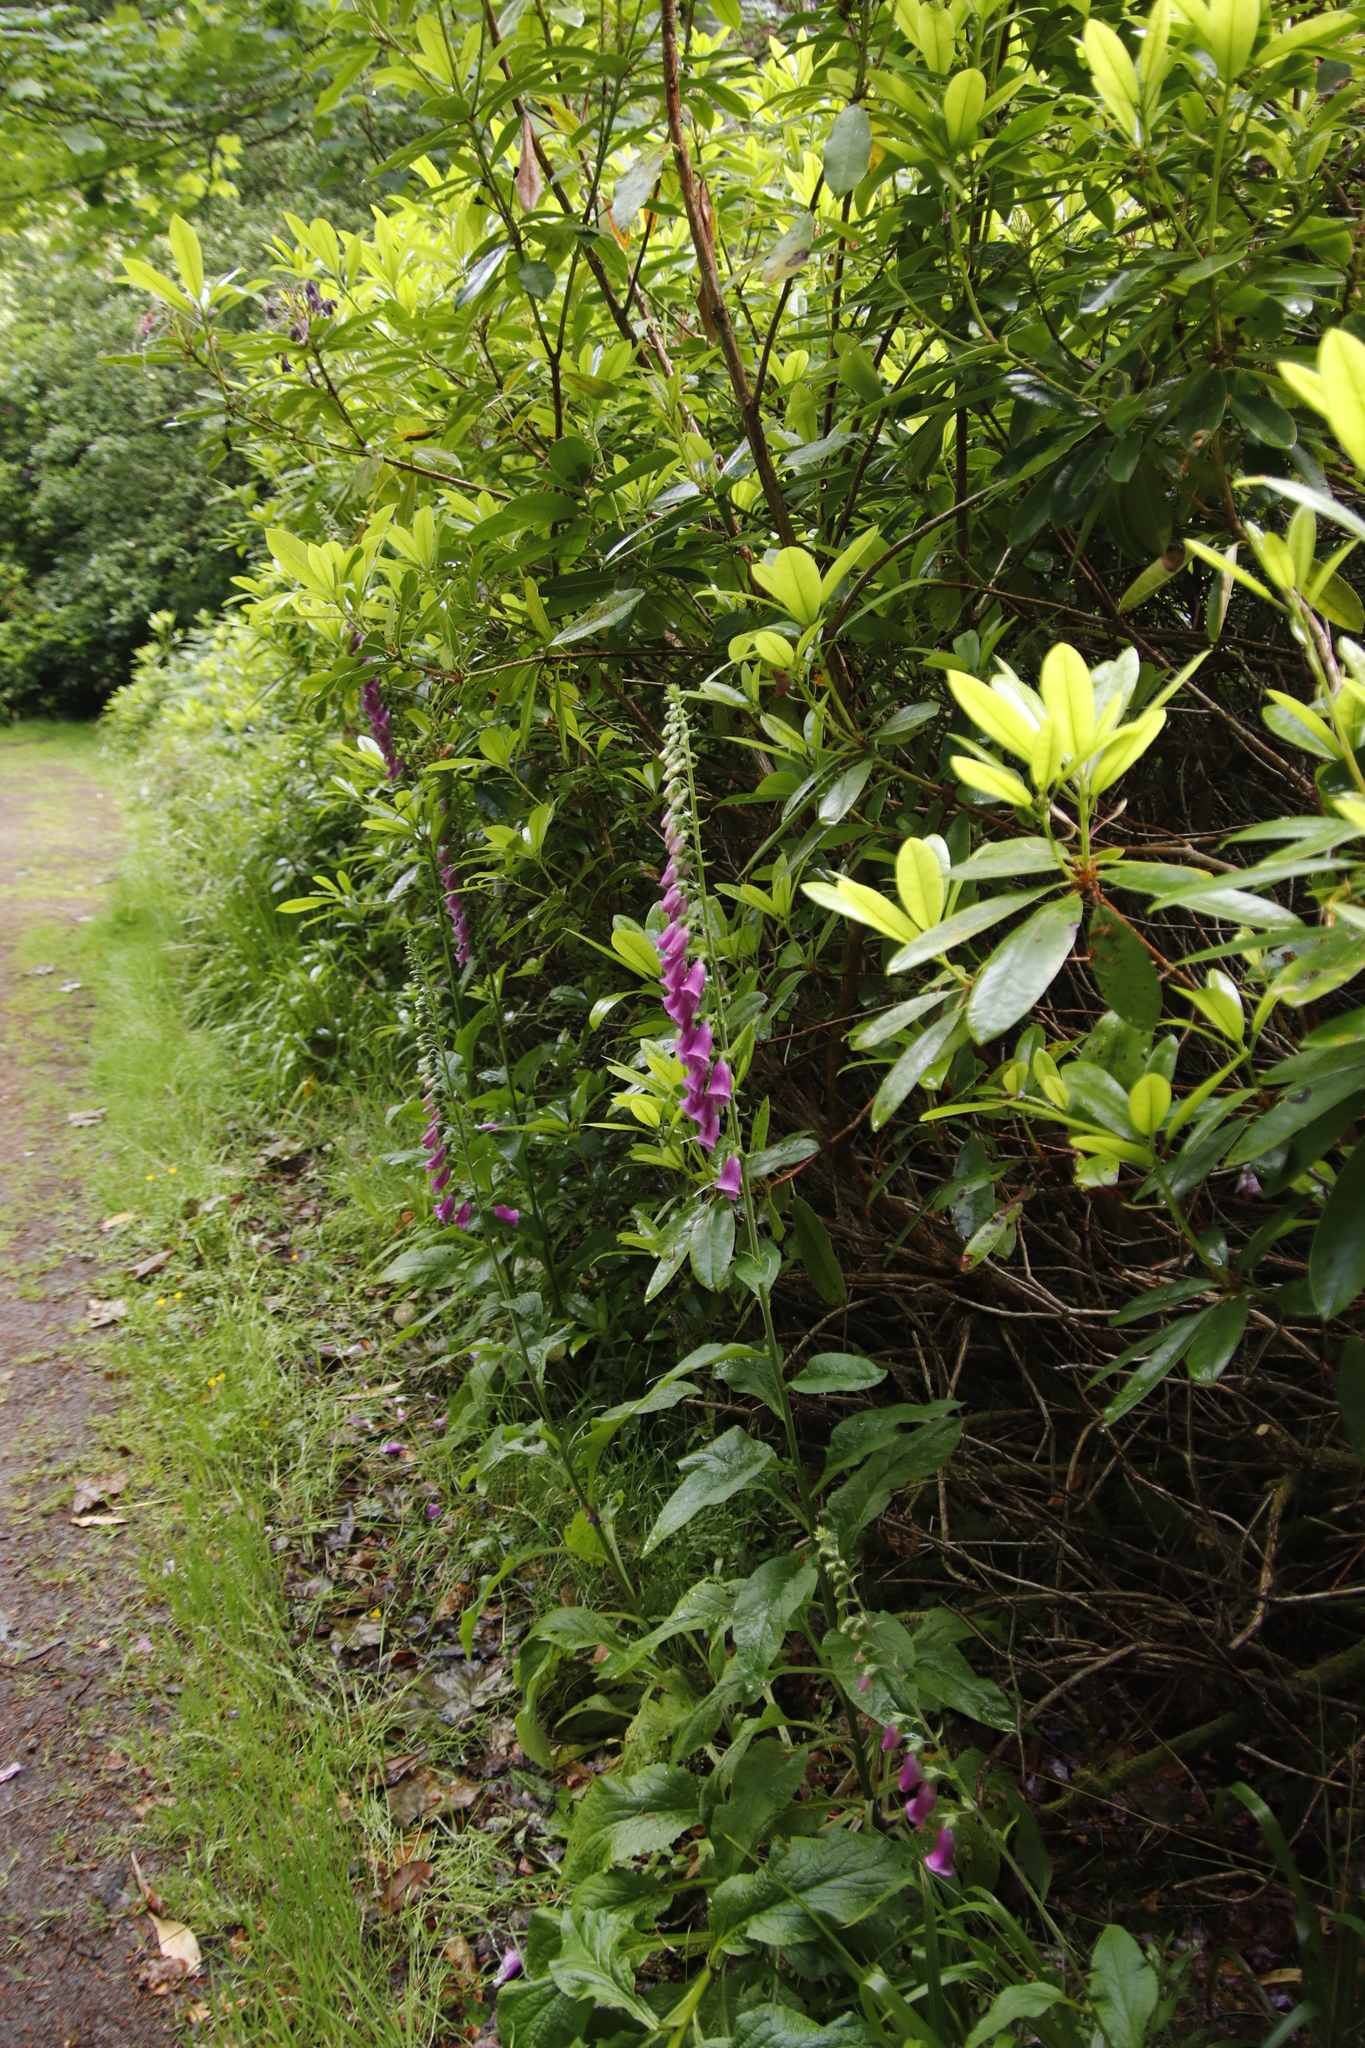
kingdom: Plantae
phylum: Tracheophyta
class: Magnoliopsida
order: Lamiales
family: Plantaginaceae
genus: Digitalis
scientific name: Digitalis purpurea
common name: Foxglove
